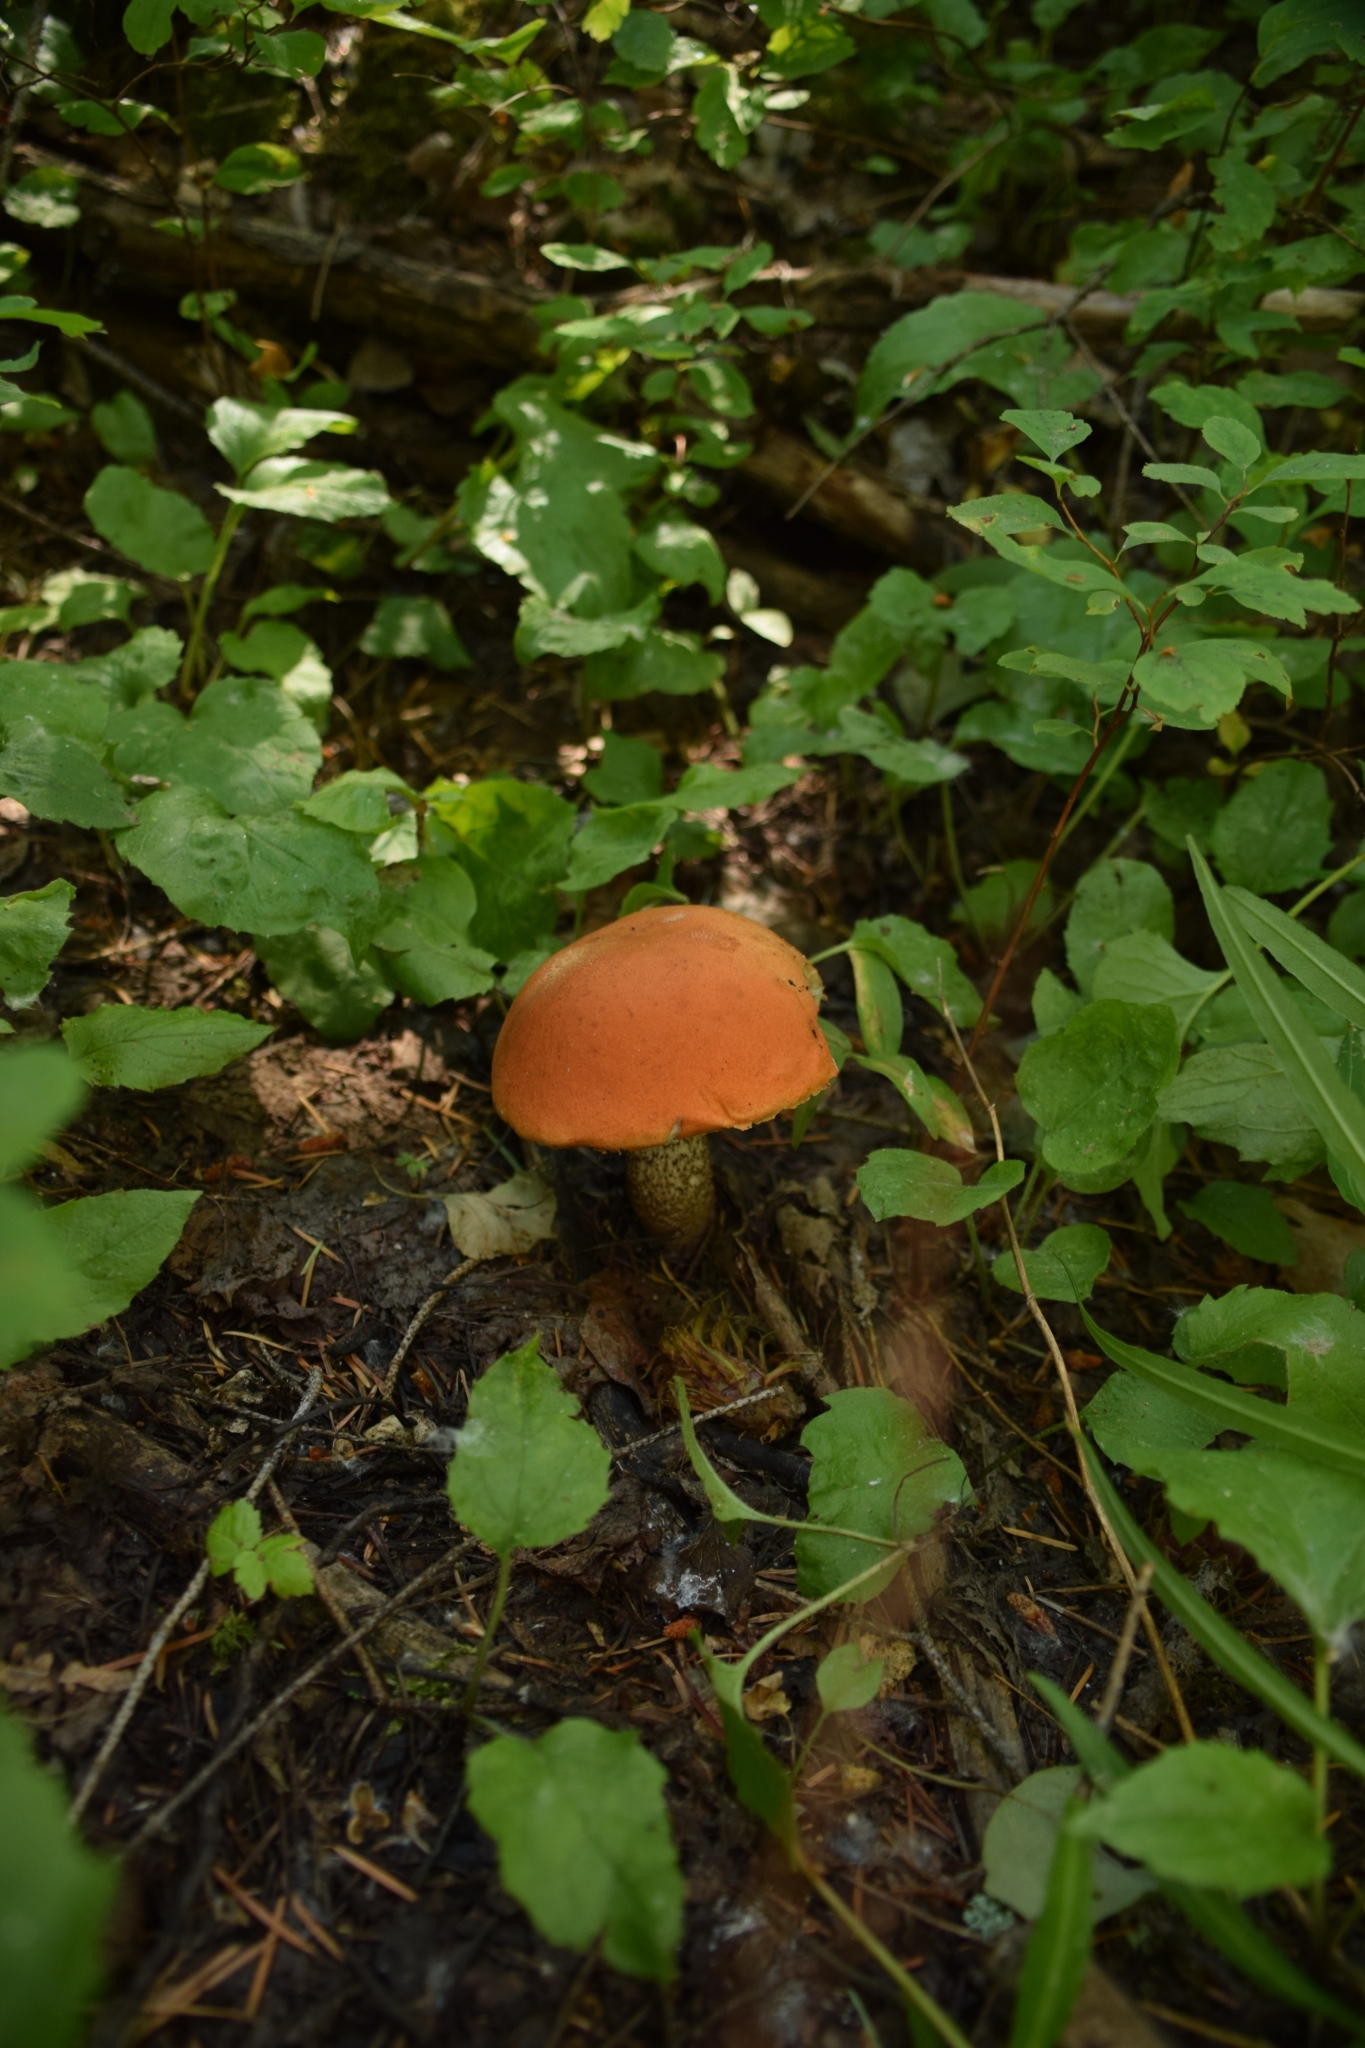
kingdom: Fungi
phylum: Basidiomycota
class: Agaricomycetes
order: Boletales
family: Boletaceae
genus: Leccinum
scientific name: Leccinum insigne
